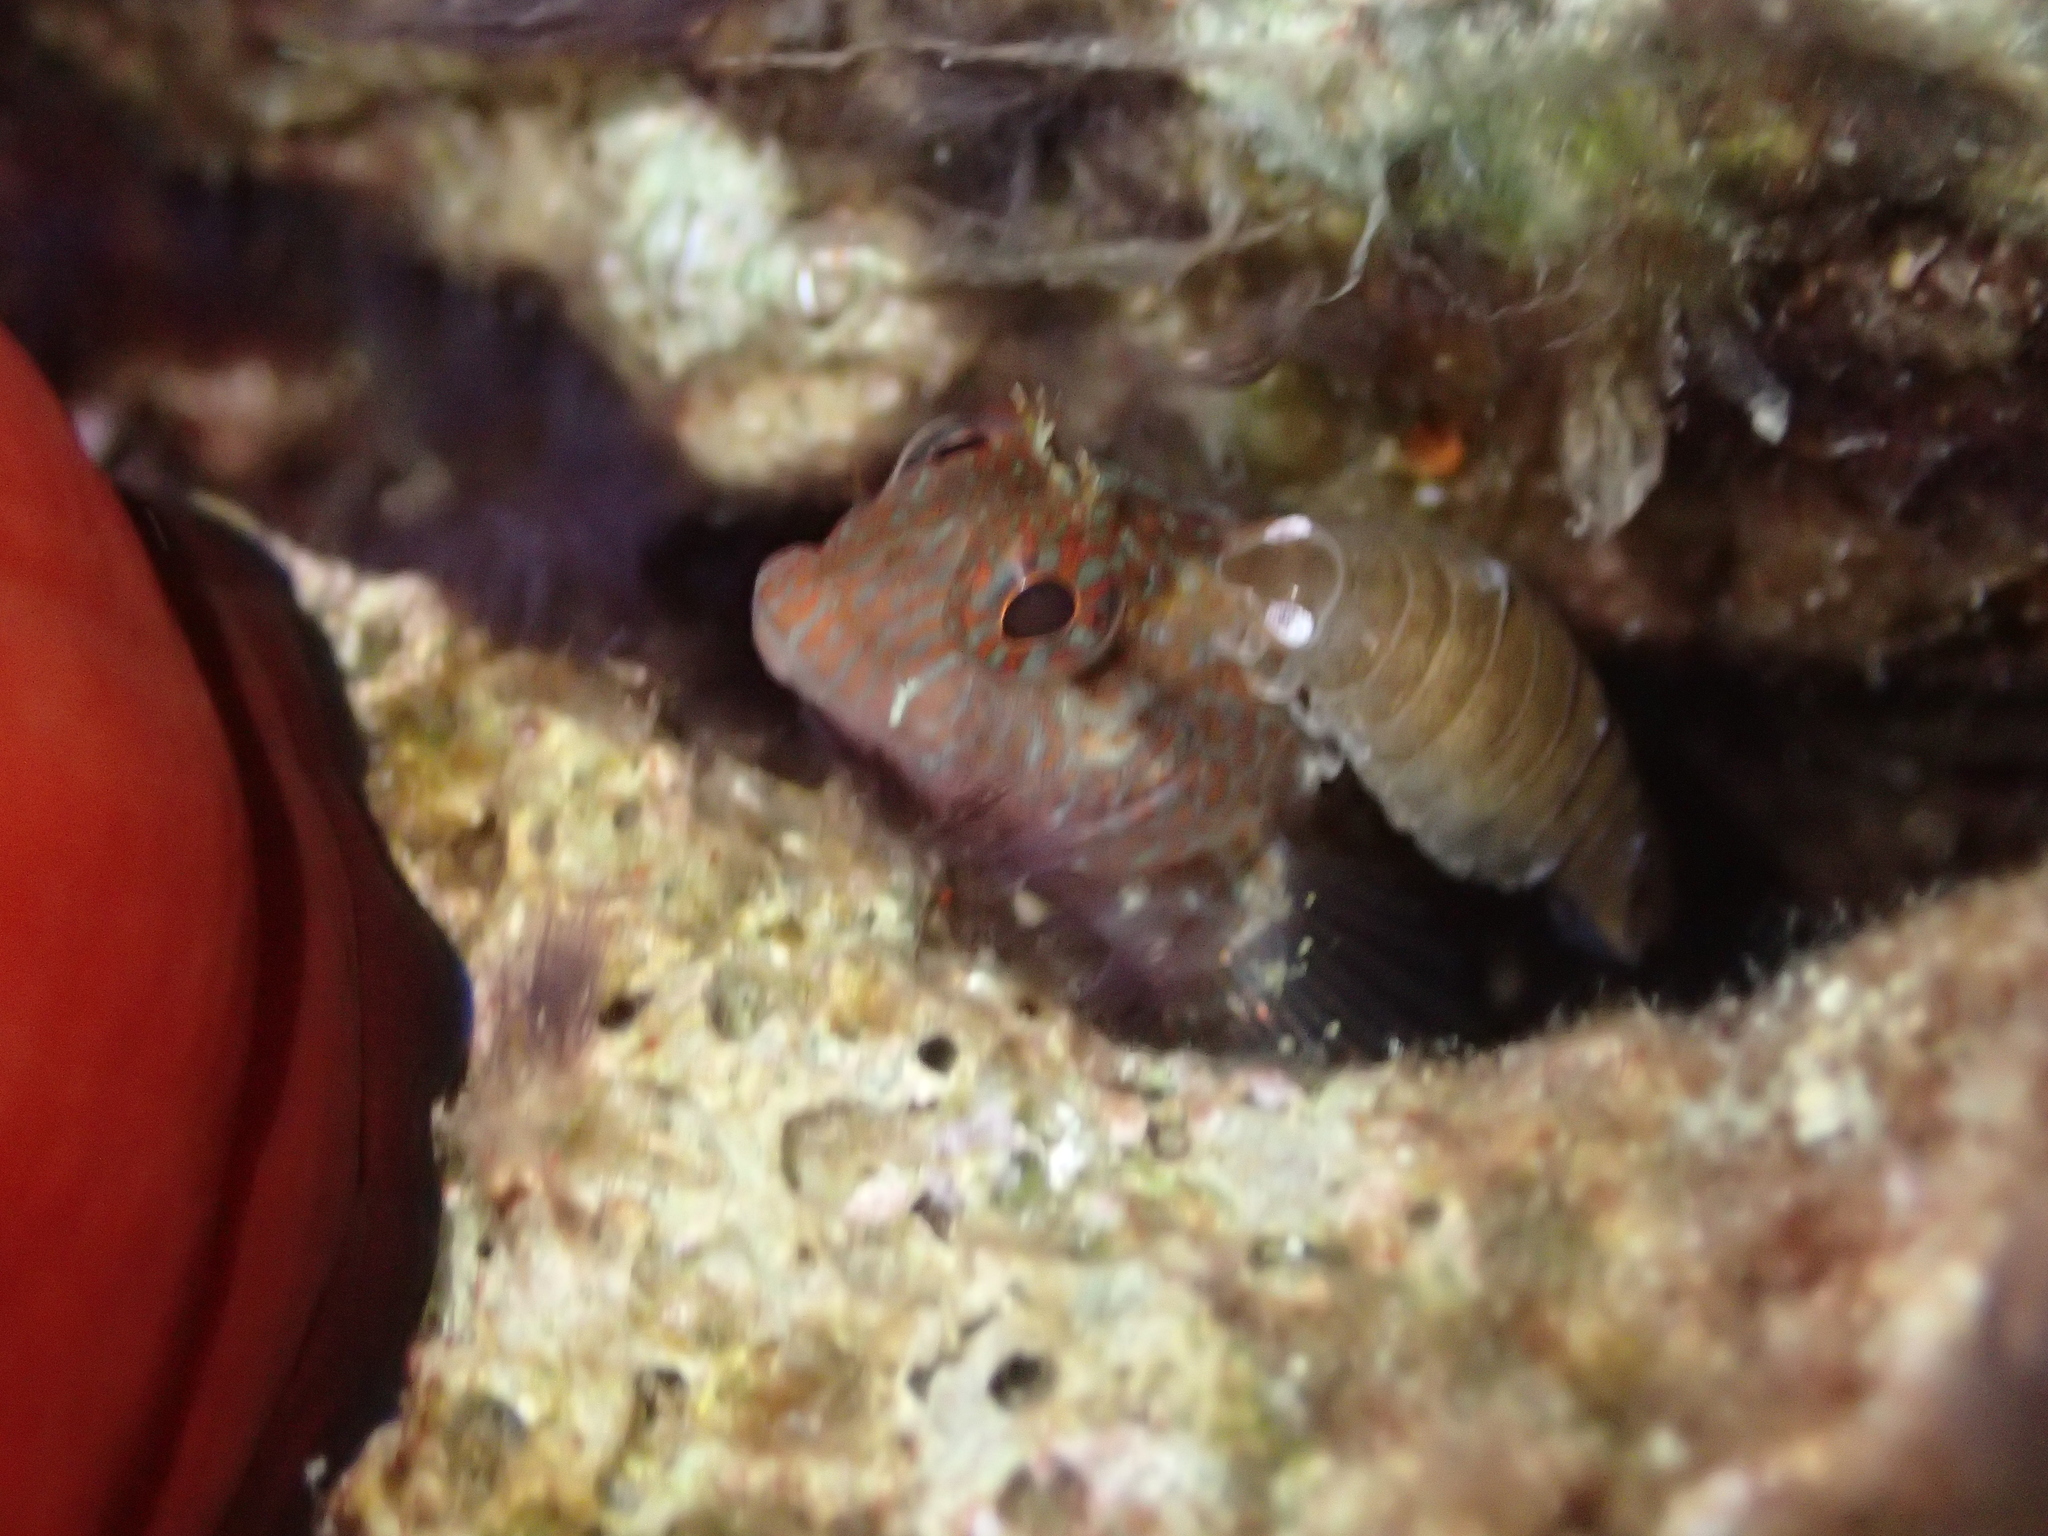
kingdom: Animalia
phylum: Chordata
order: Perciformes
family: Blenniidae
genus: Parablennius
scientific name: Parablennius zvonimiri
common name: Red blenny
